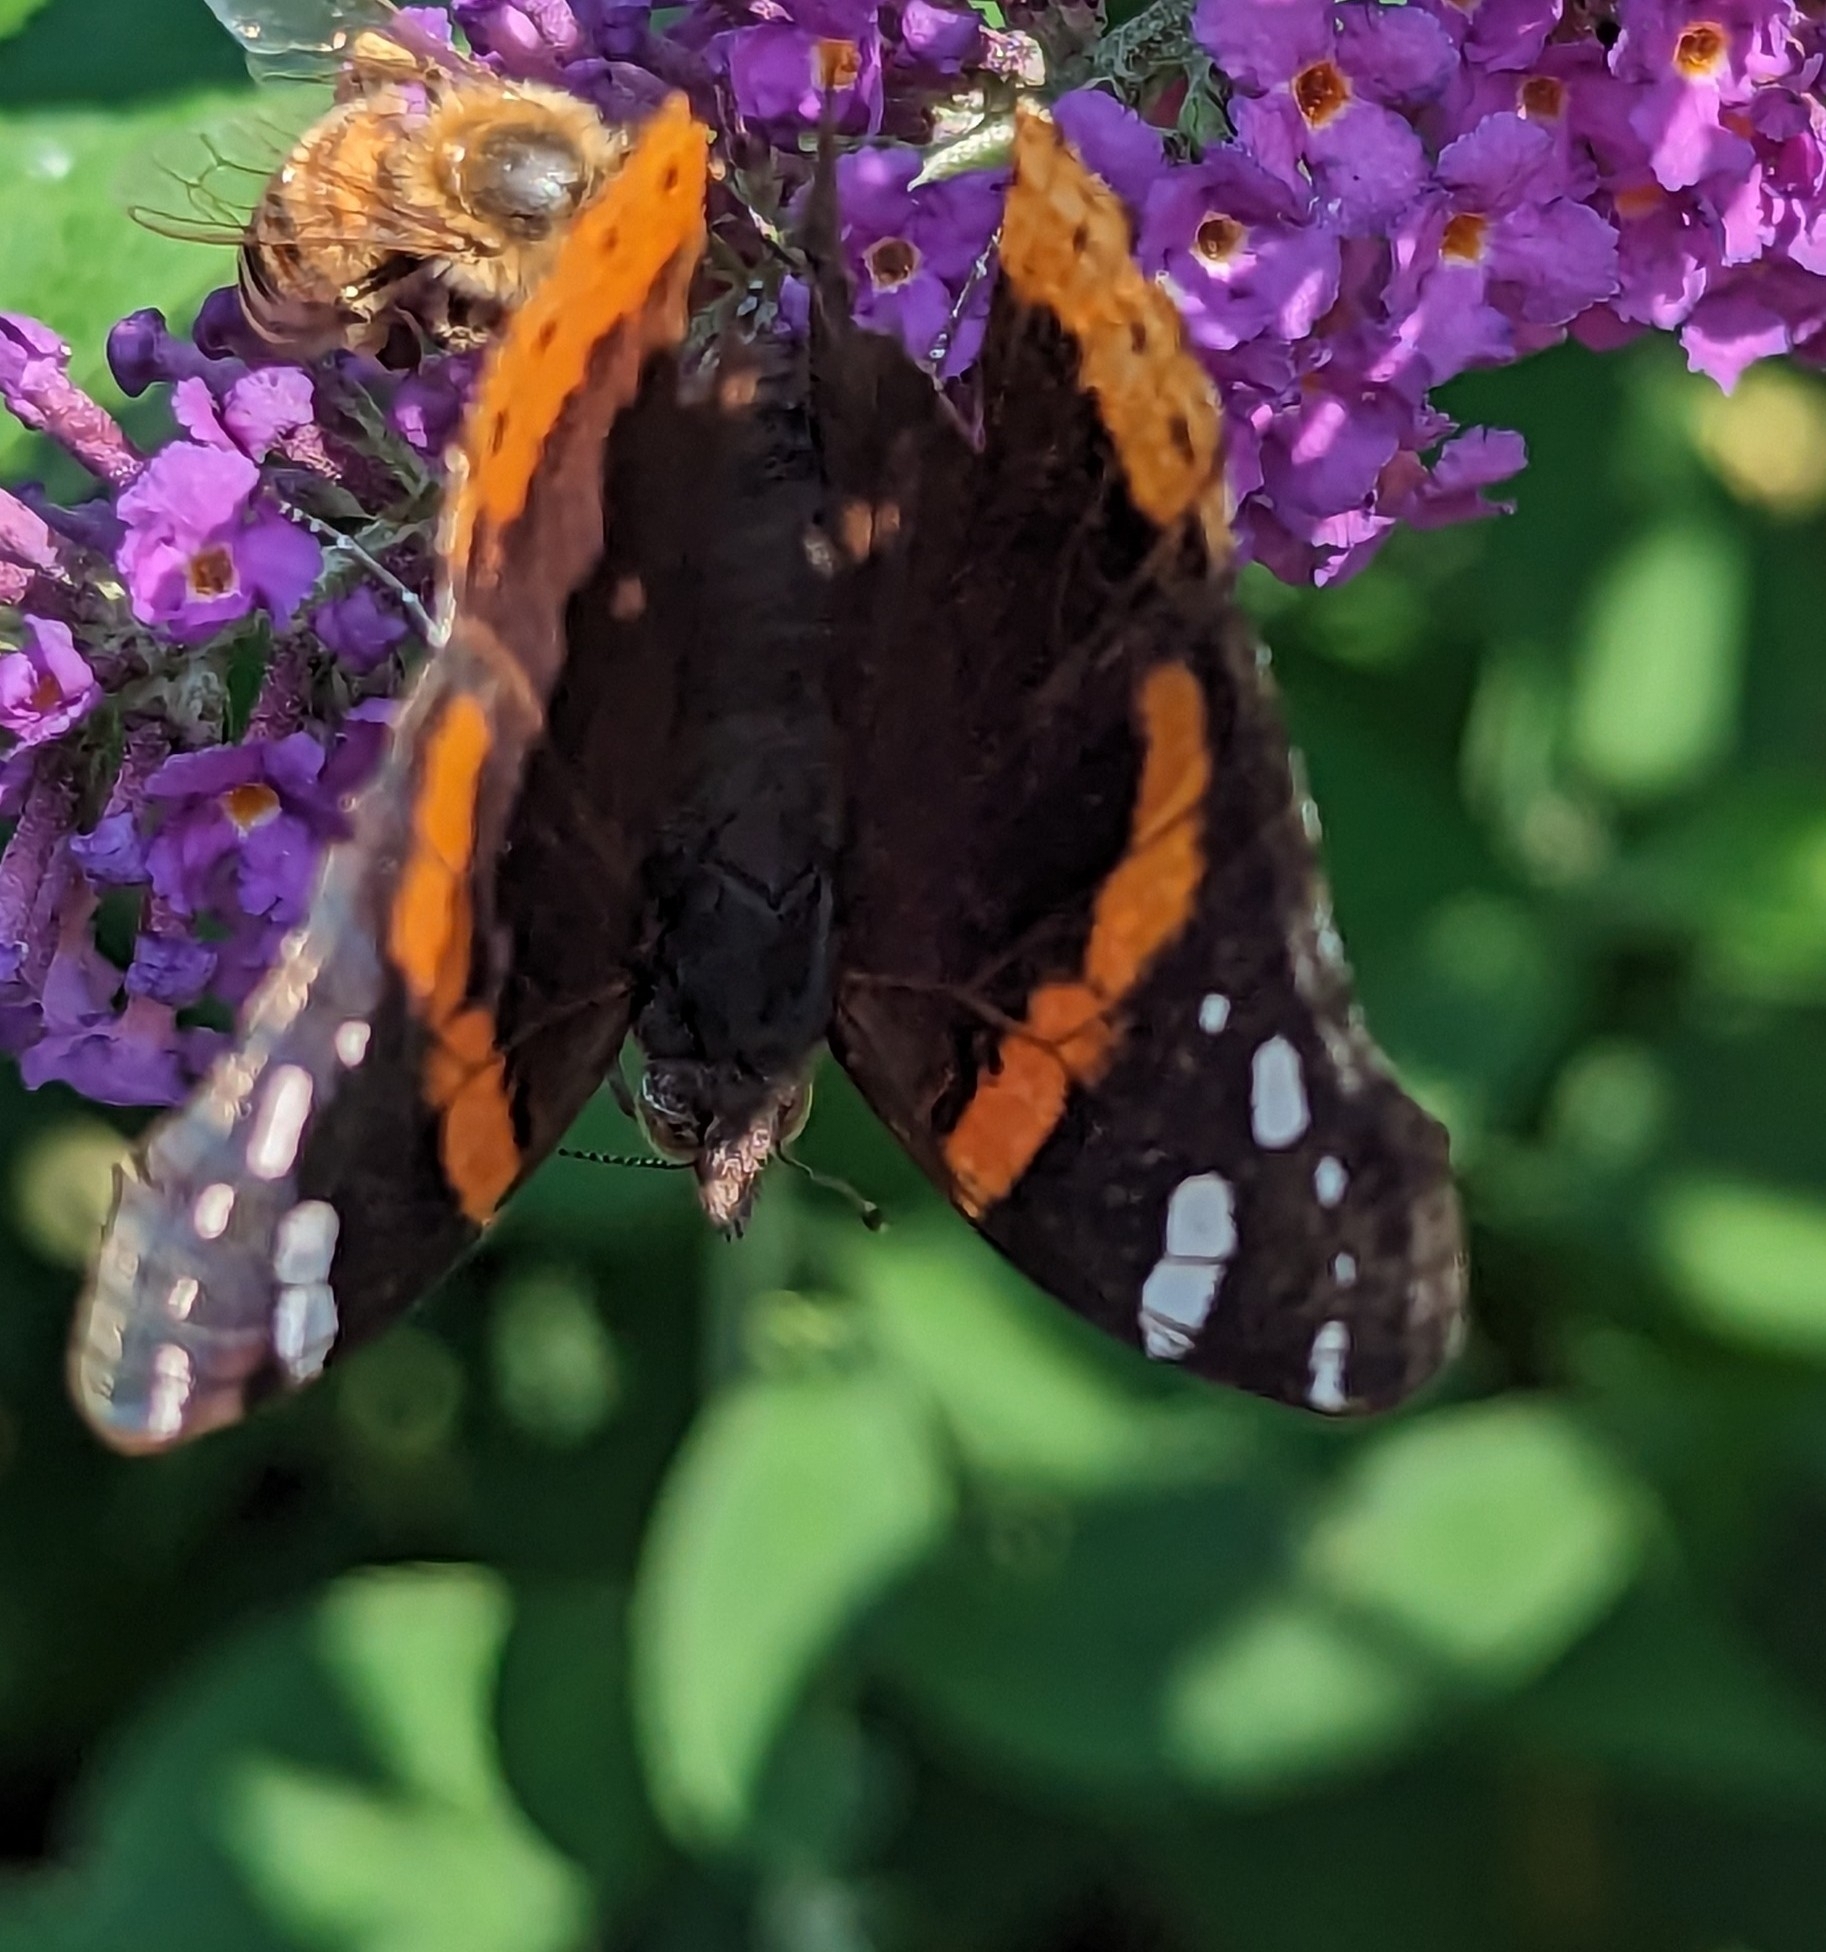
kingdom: Animalia
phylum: Arthropoda
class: Insecta
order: Lepidoptera
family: Nymphalidae
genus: Vanessa
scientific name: Vanessa atalanta
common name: Red admiral
